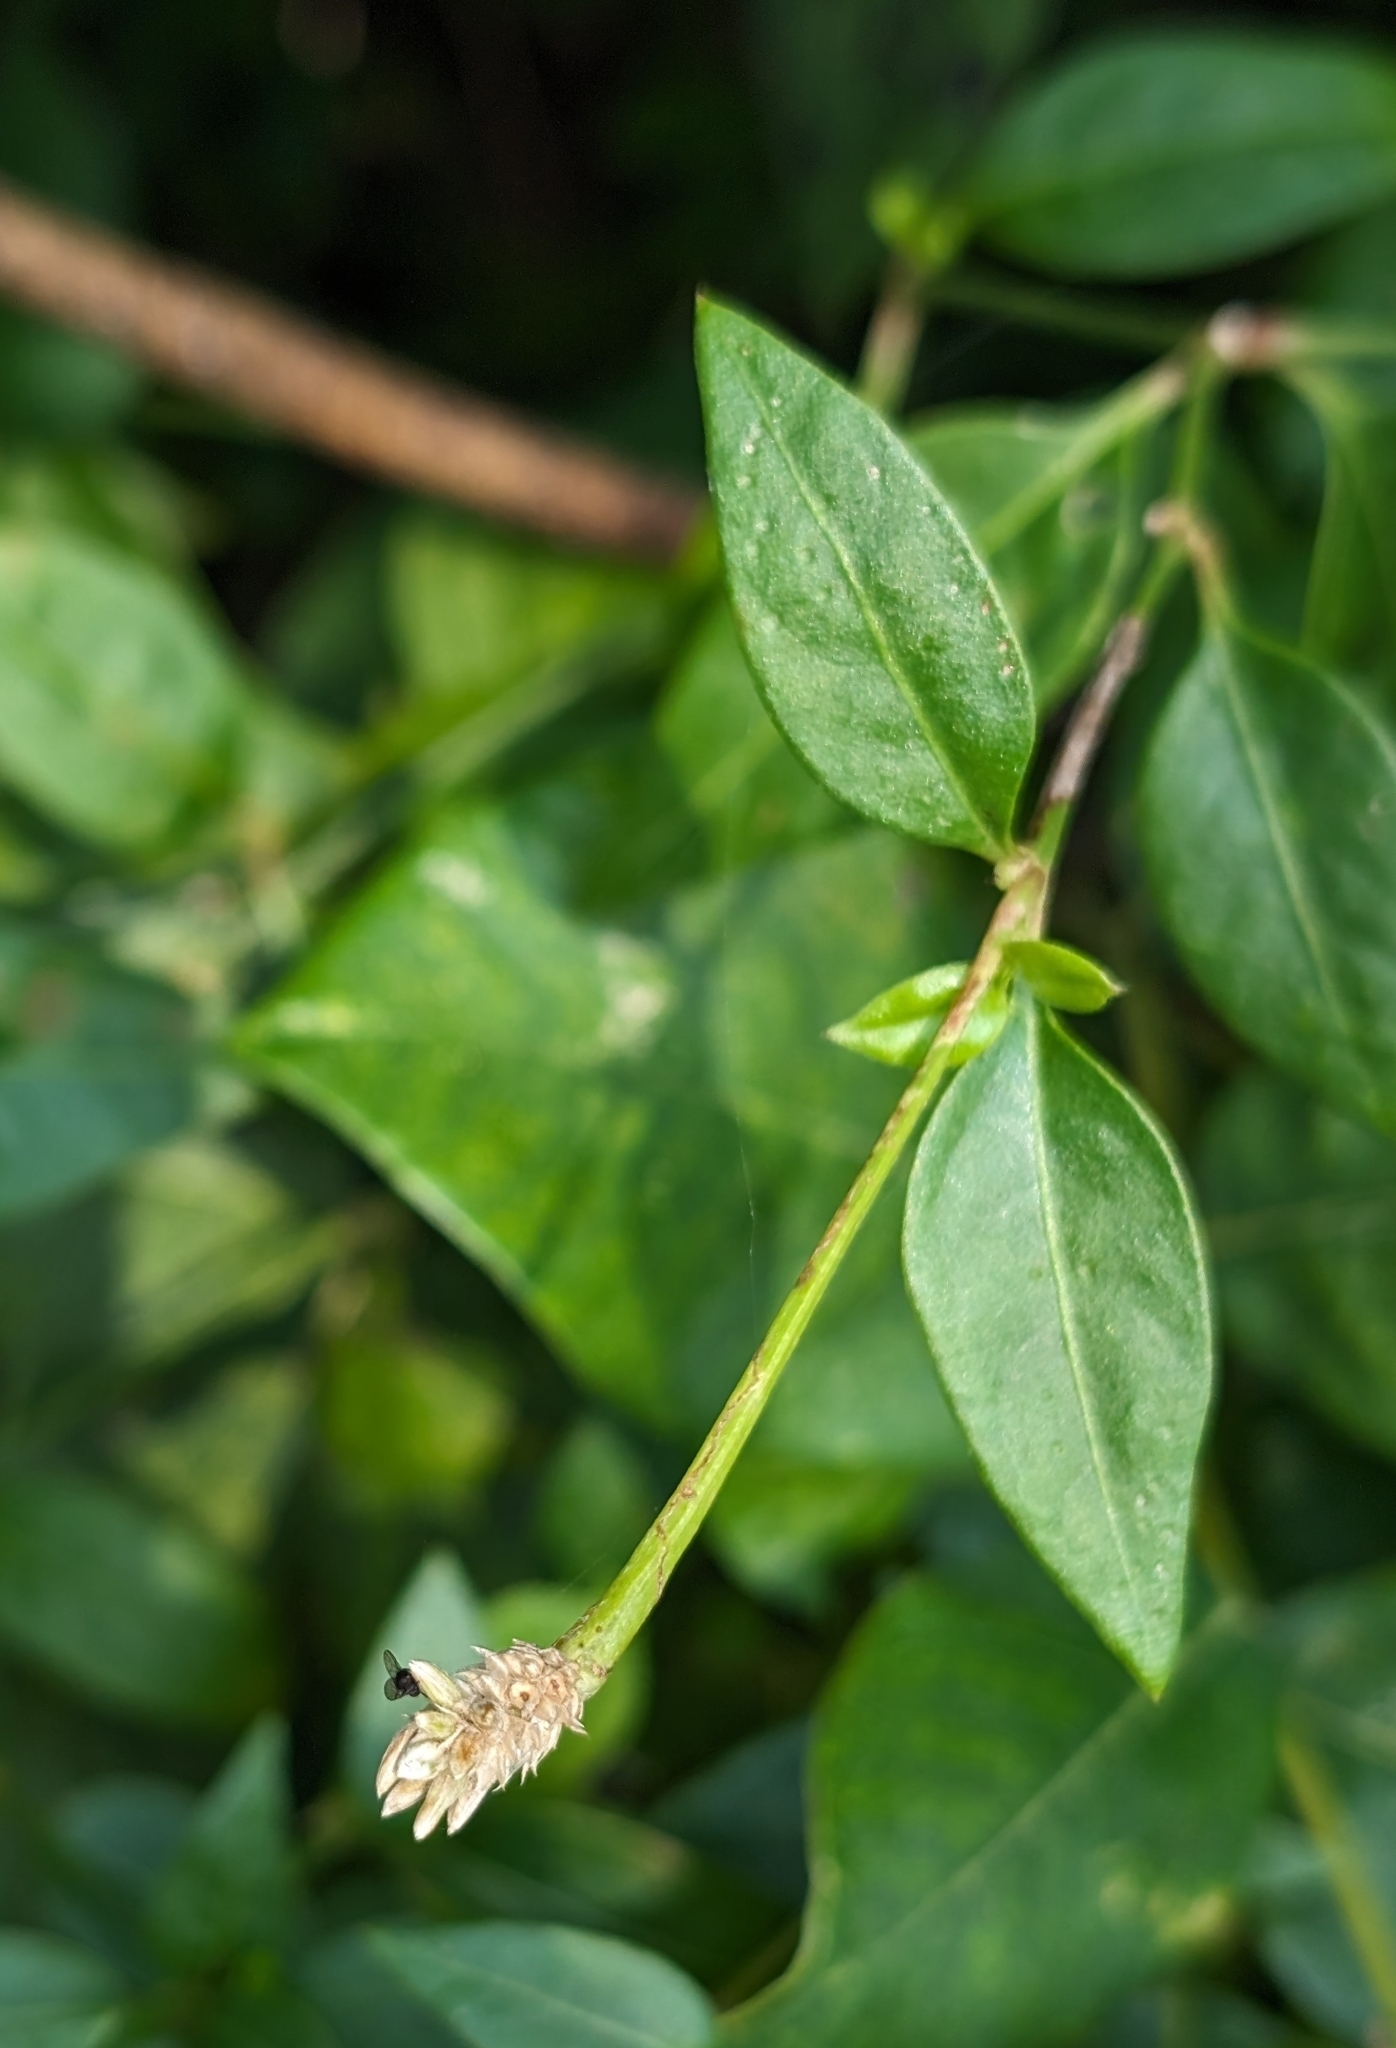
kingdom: Plantae
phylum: Tracheophyta
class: Magnoliopsida
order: Caryophyllales
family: Amaranthaceae
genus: Alternanthera
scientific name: Alternanthera flavescens
